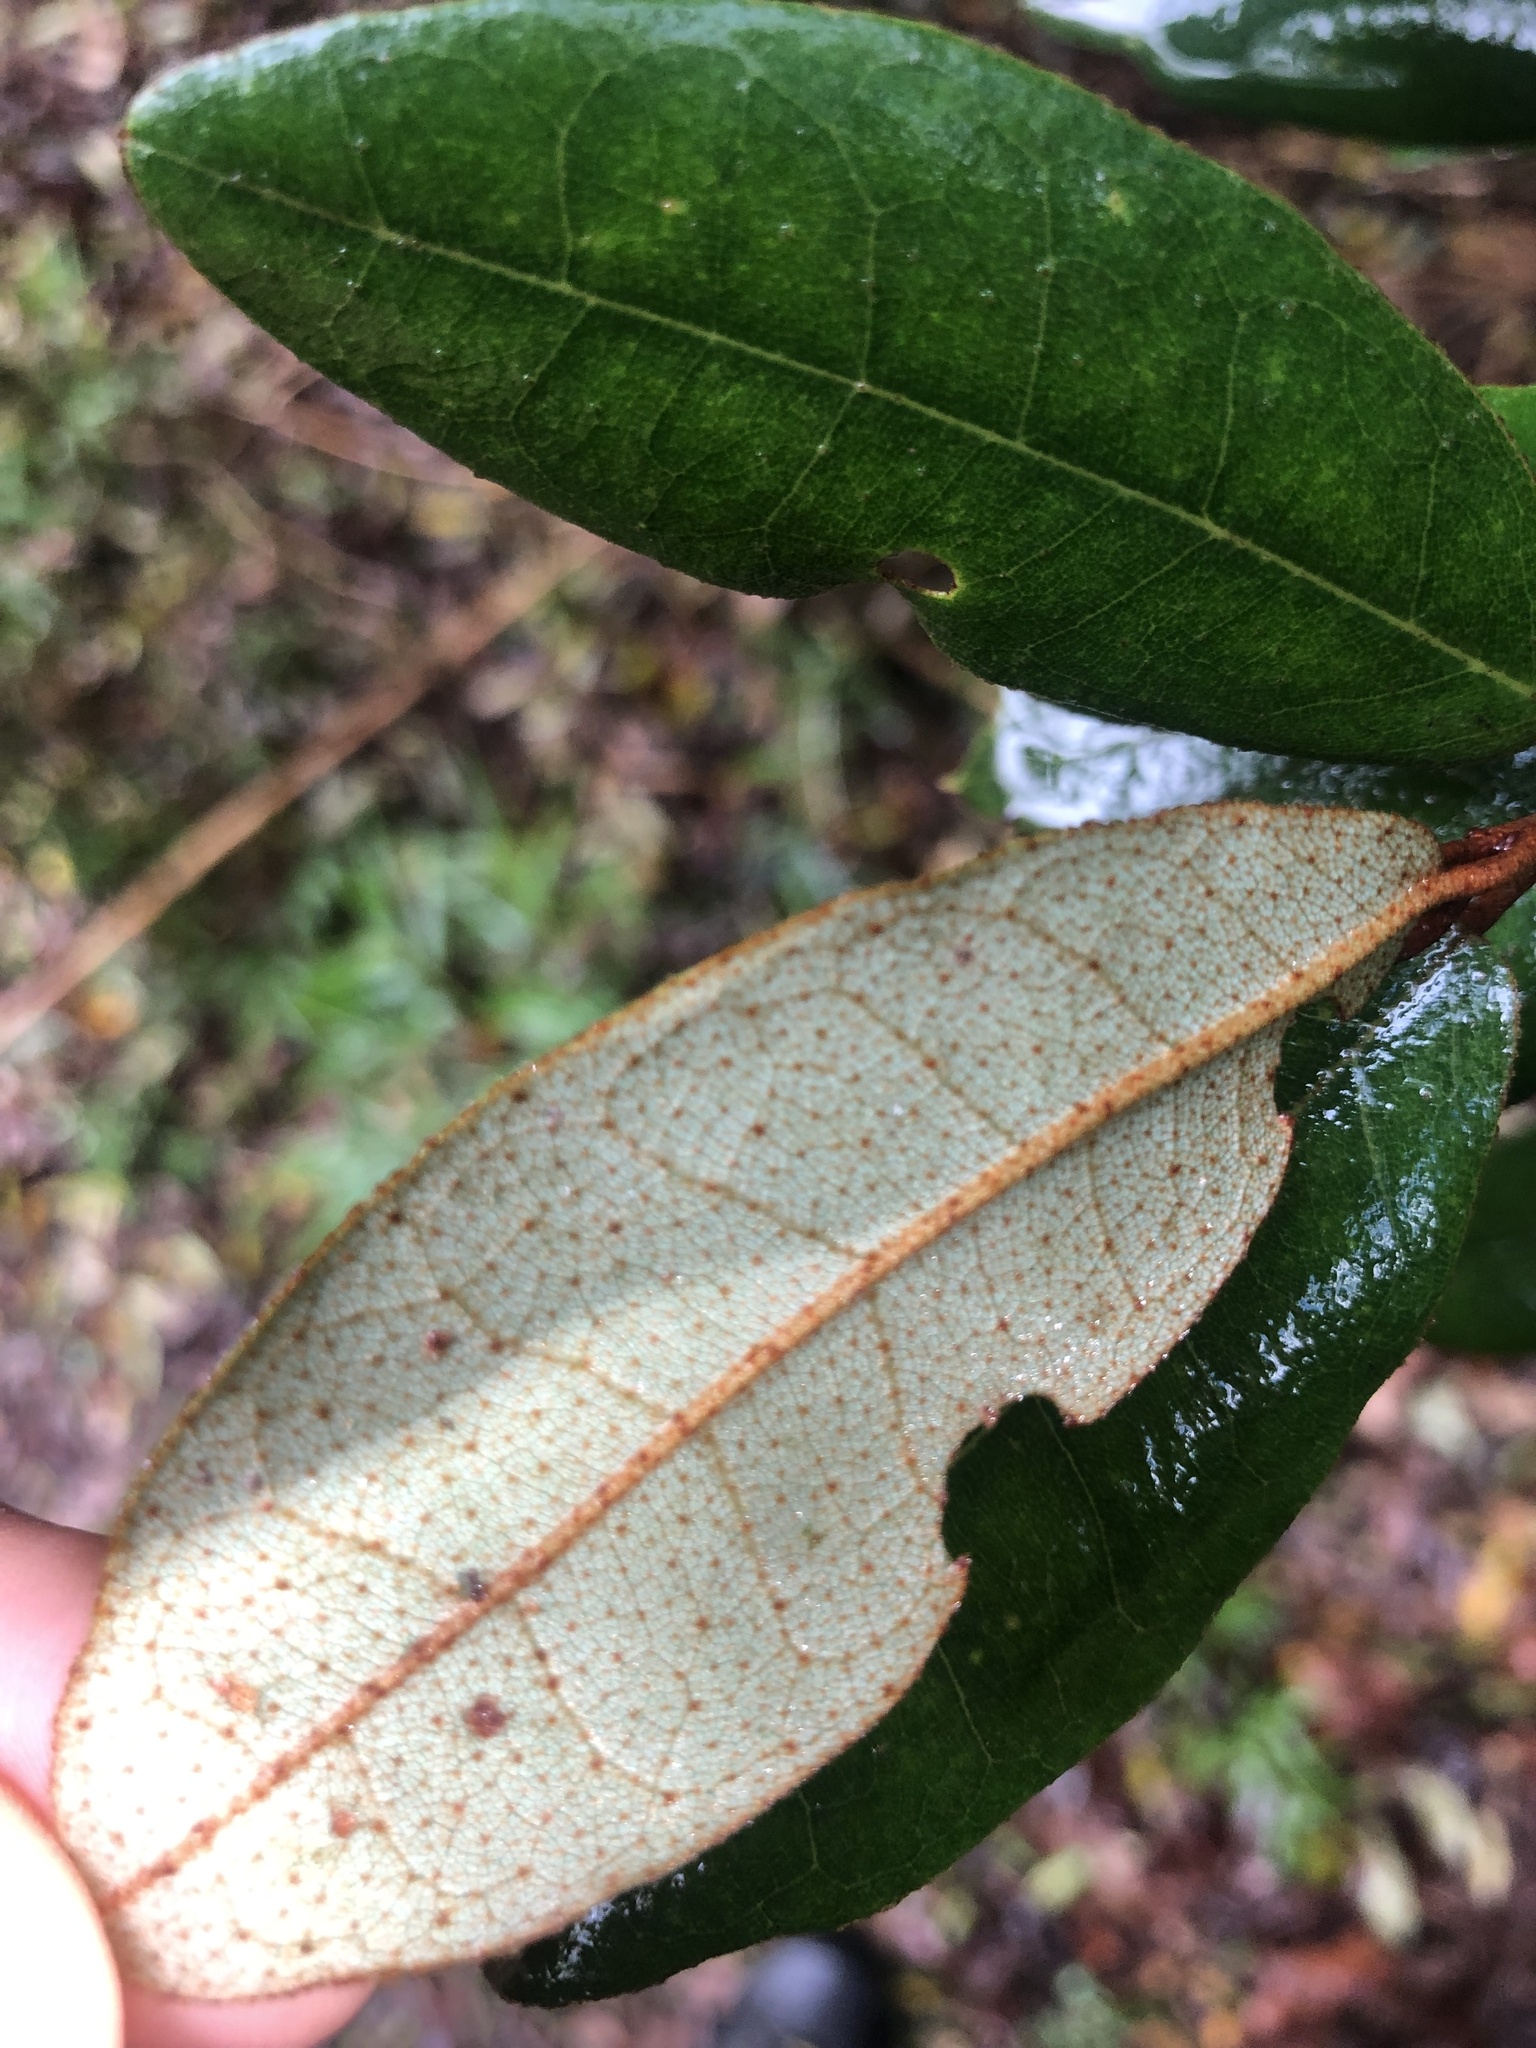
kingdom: Plantae
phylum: Tracheophyta
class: Magnoliopsida
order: Berberidopsidales
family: Aextoxicaceae
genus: Aextoxicon
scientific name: Aextoxicon punctatum
